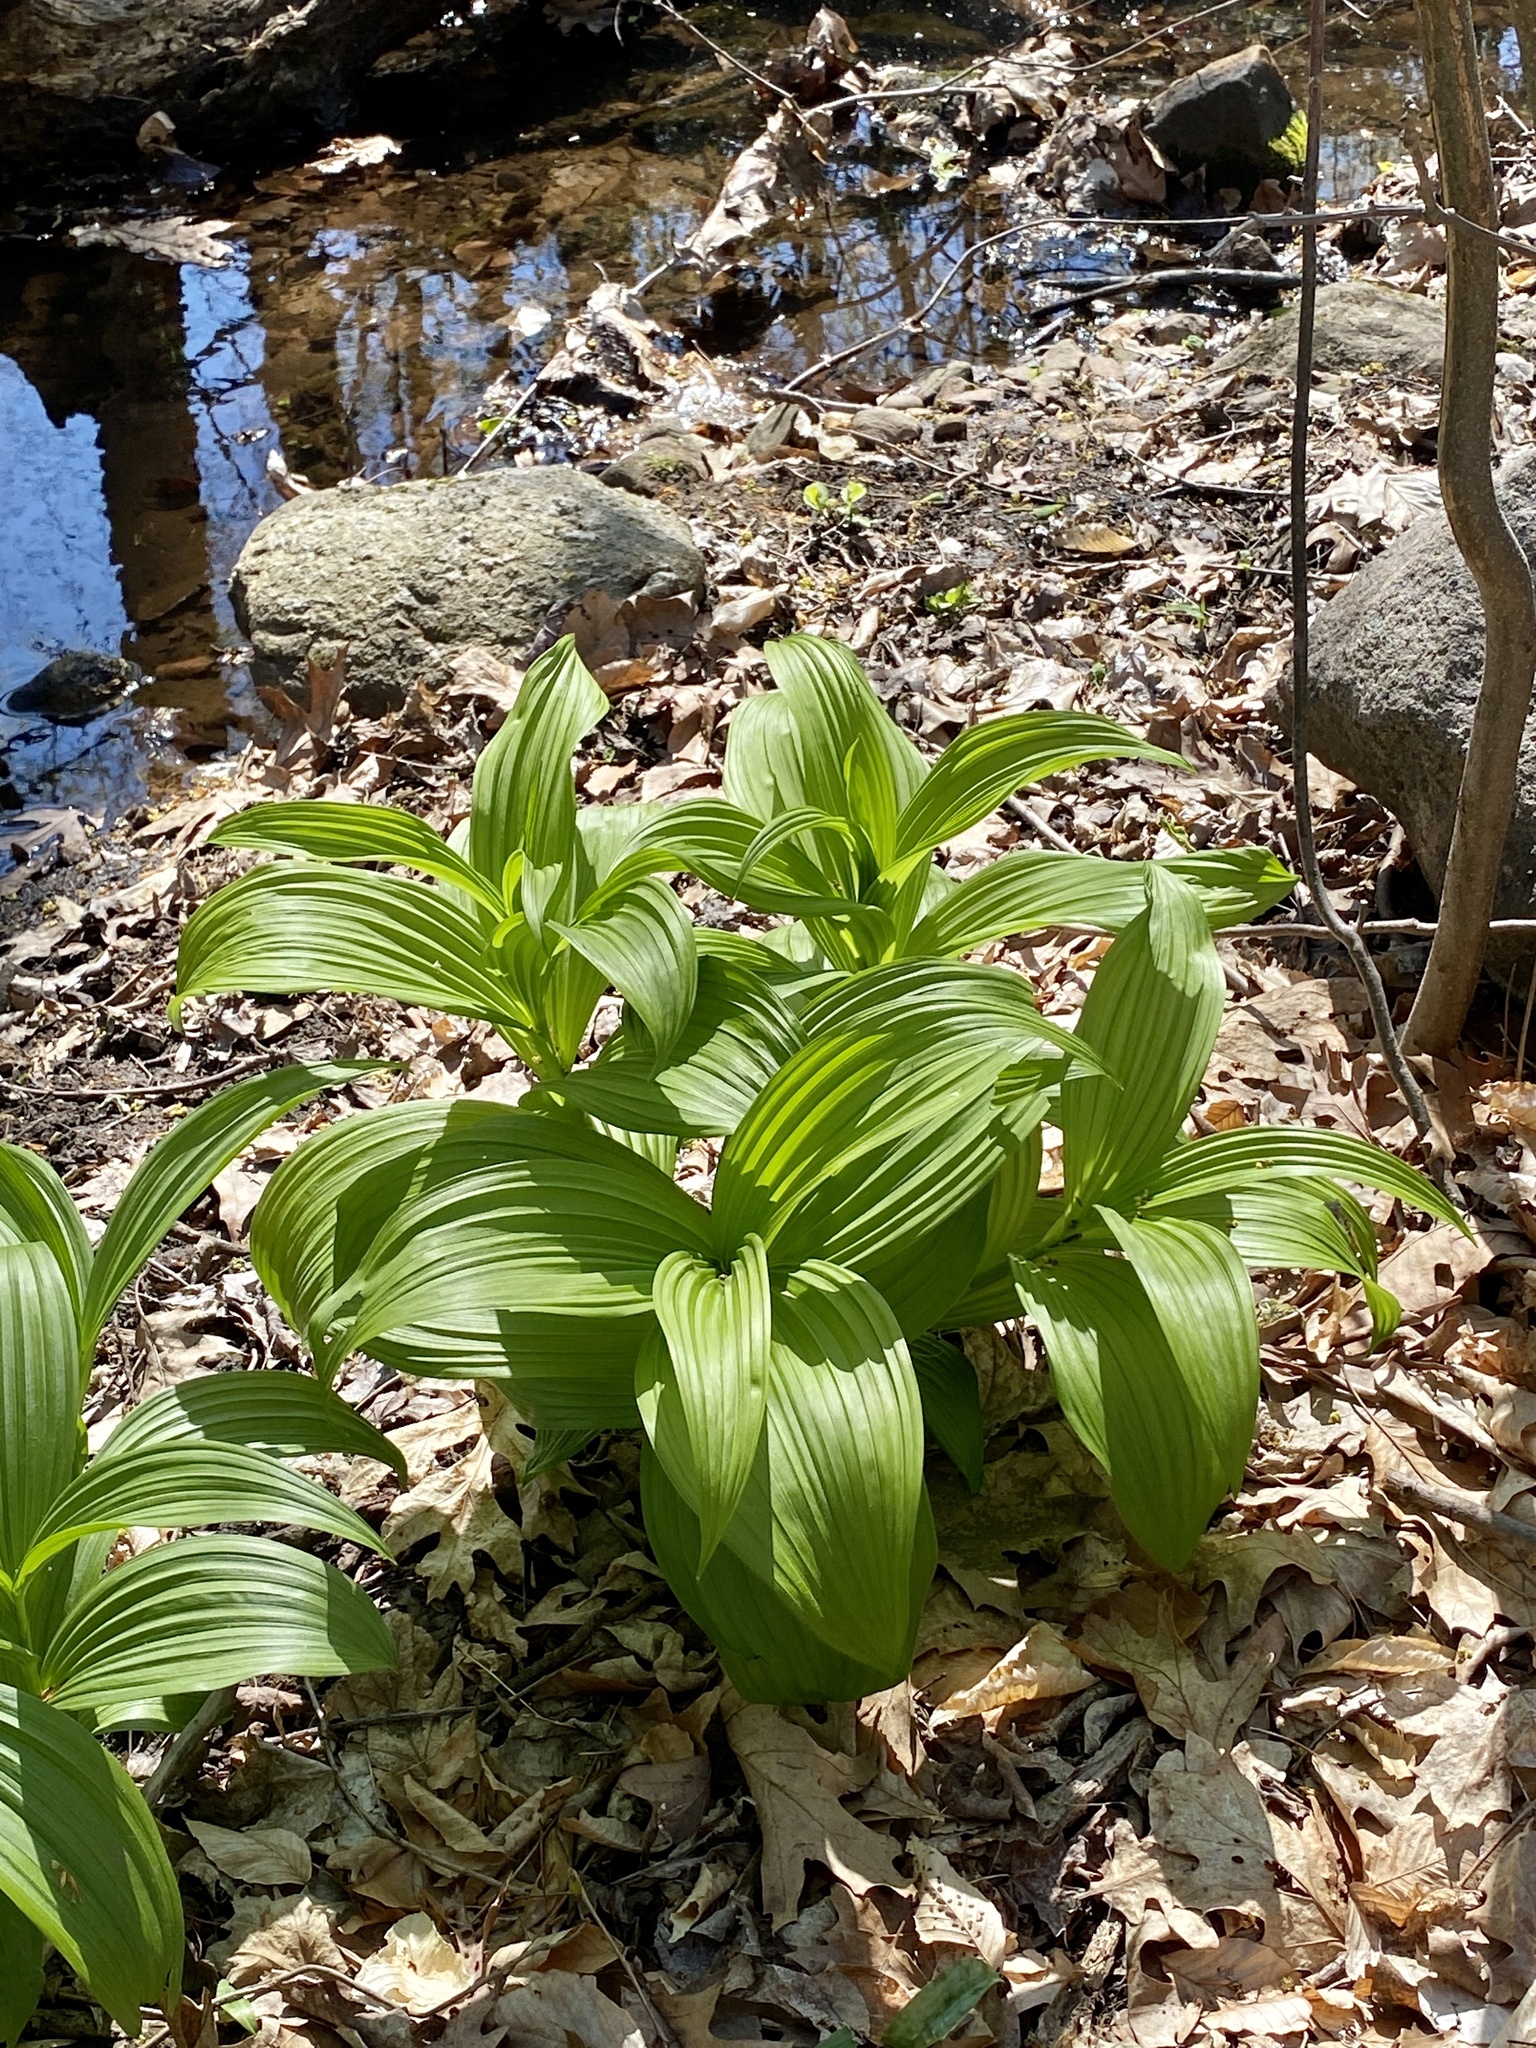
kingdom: Plantae
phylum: Tracheophyta
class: Liliopsida
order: Liliales
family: Melanthiaceae
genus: Veratrum
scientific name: Veratrum viride
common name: American false hellebore
